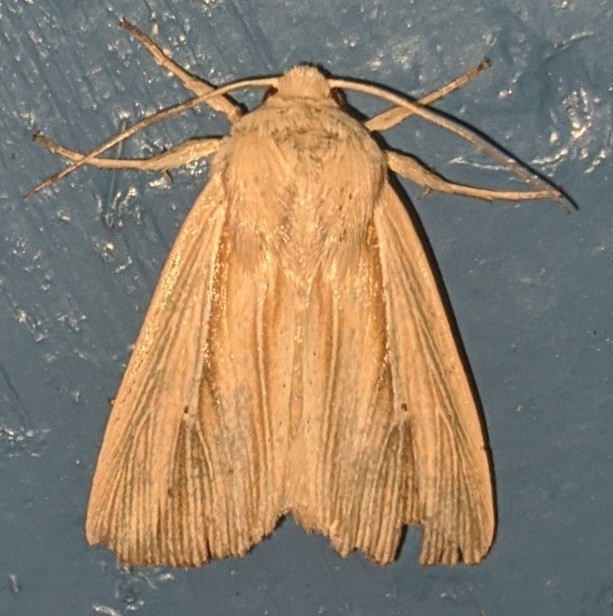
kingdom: Animalia
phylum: Arthropoda
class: Insecta
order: Lepidoptera
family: Noctuidae
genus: Leucania
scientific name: Leucania multilinea
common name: Many-lined wainscot
